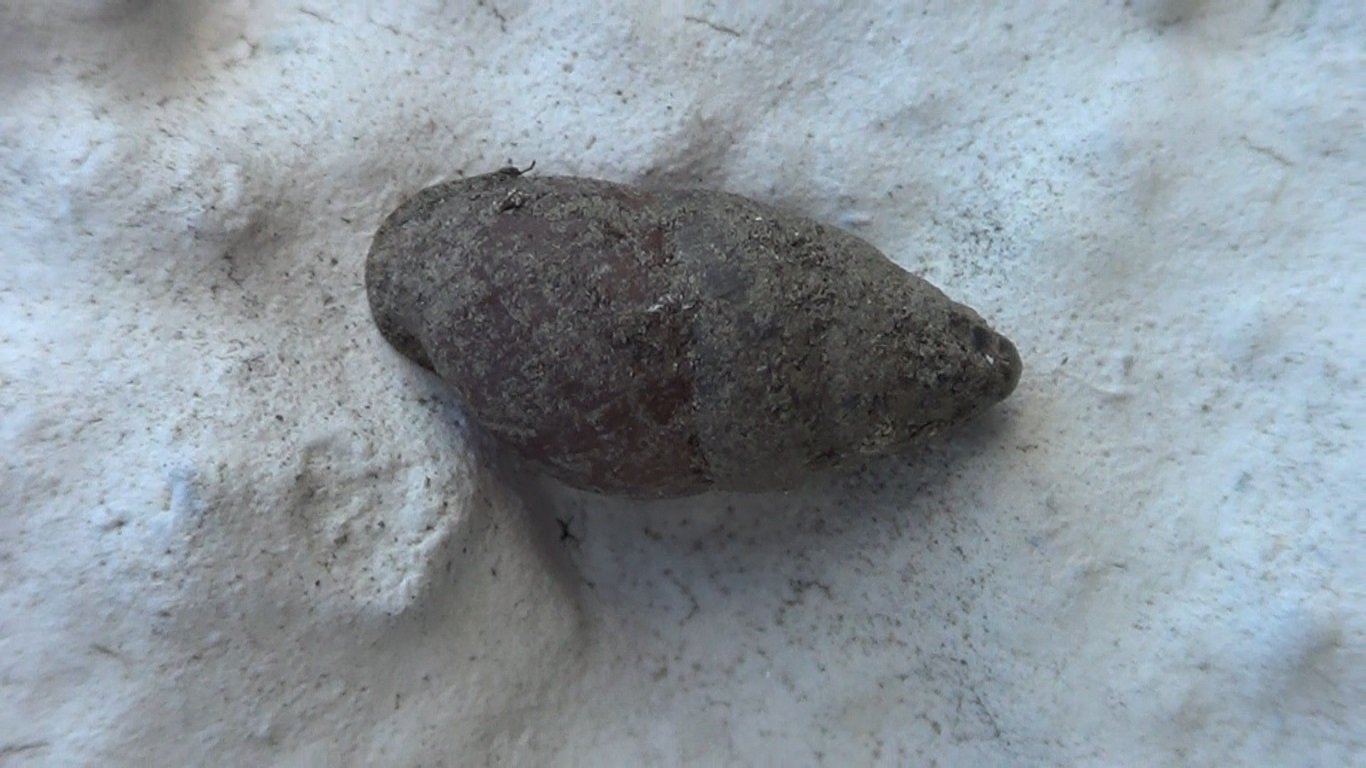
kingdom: Animalia
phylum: Mollusca
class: Gastropoda
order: Stylommatophora
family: Enidae
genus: Mastus
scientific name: Mastus pupa
